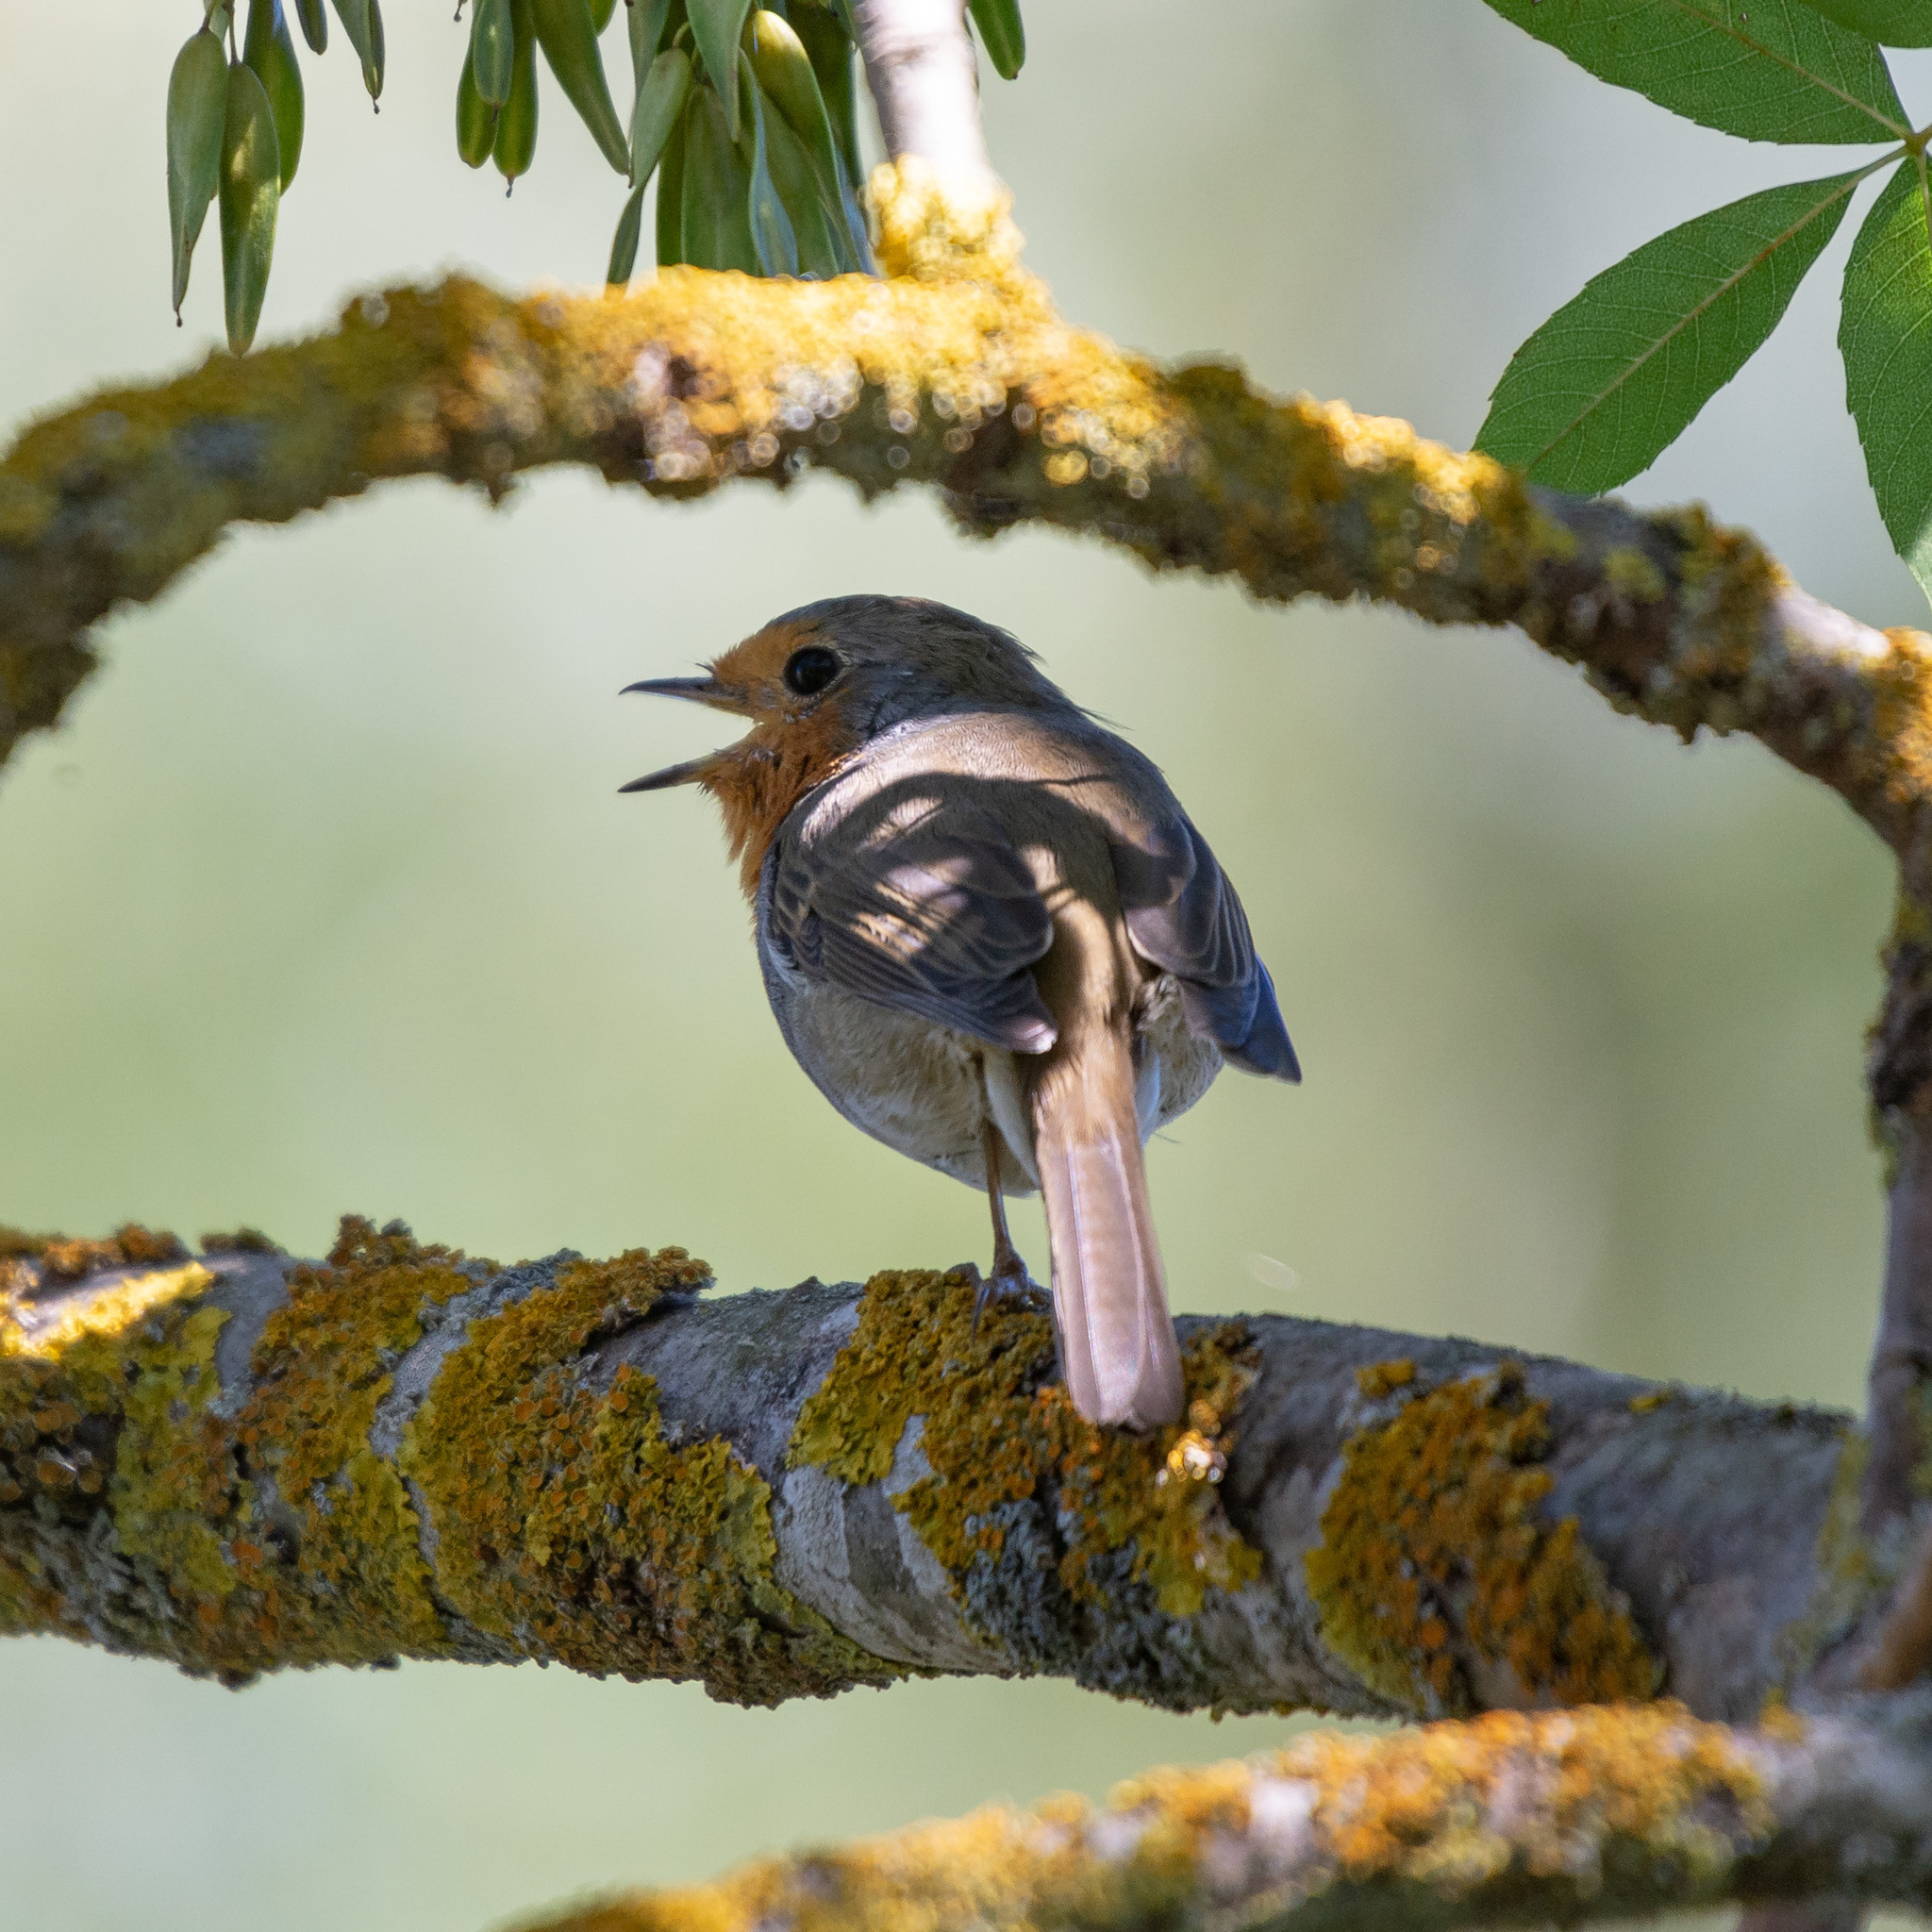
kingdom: Animalia
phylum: Chordata
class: Aves
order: Passeriformes
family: Muscicapidae
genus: Erithacus
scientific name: Erithacus rubecula
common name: European robin
